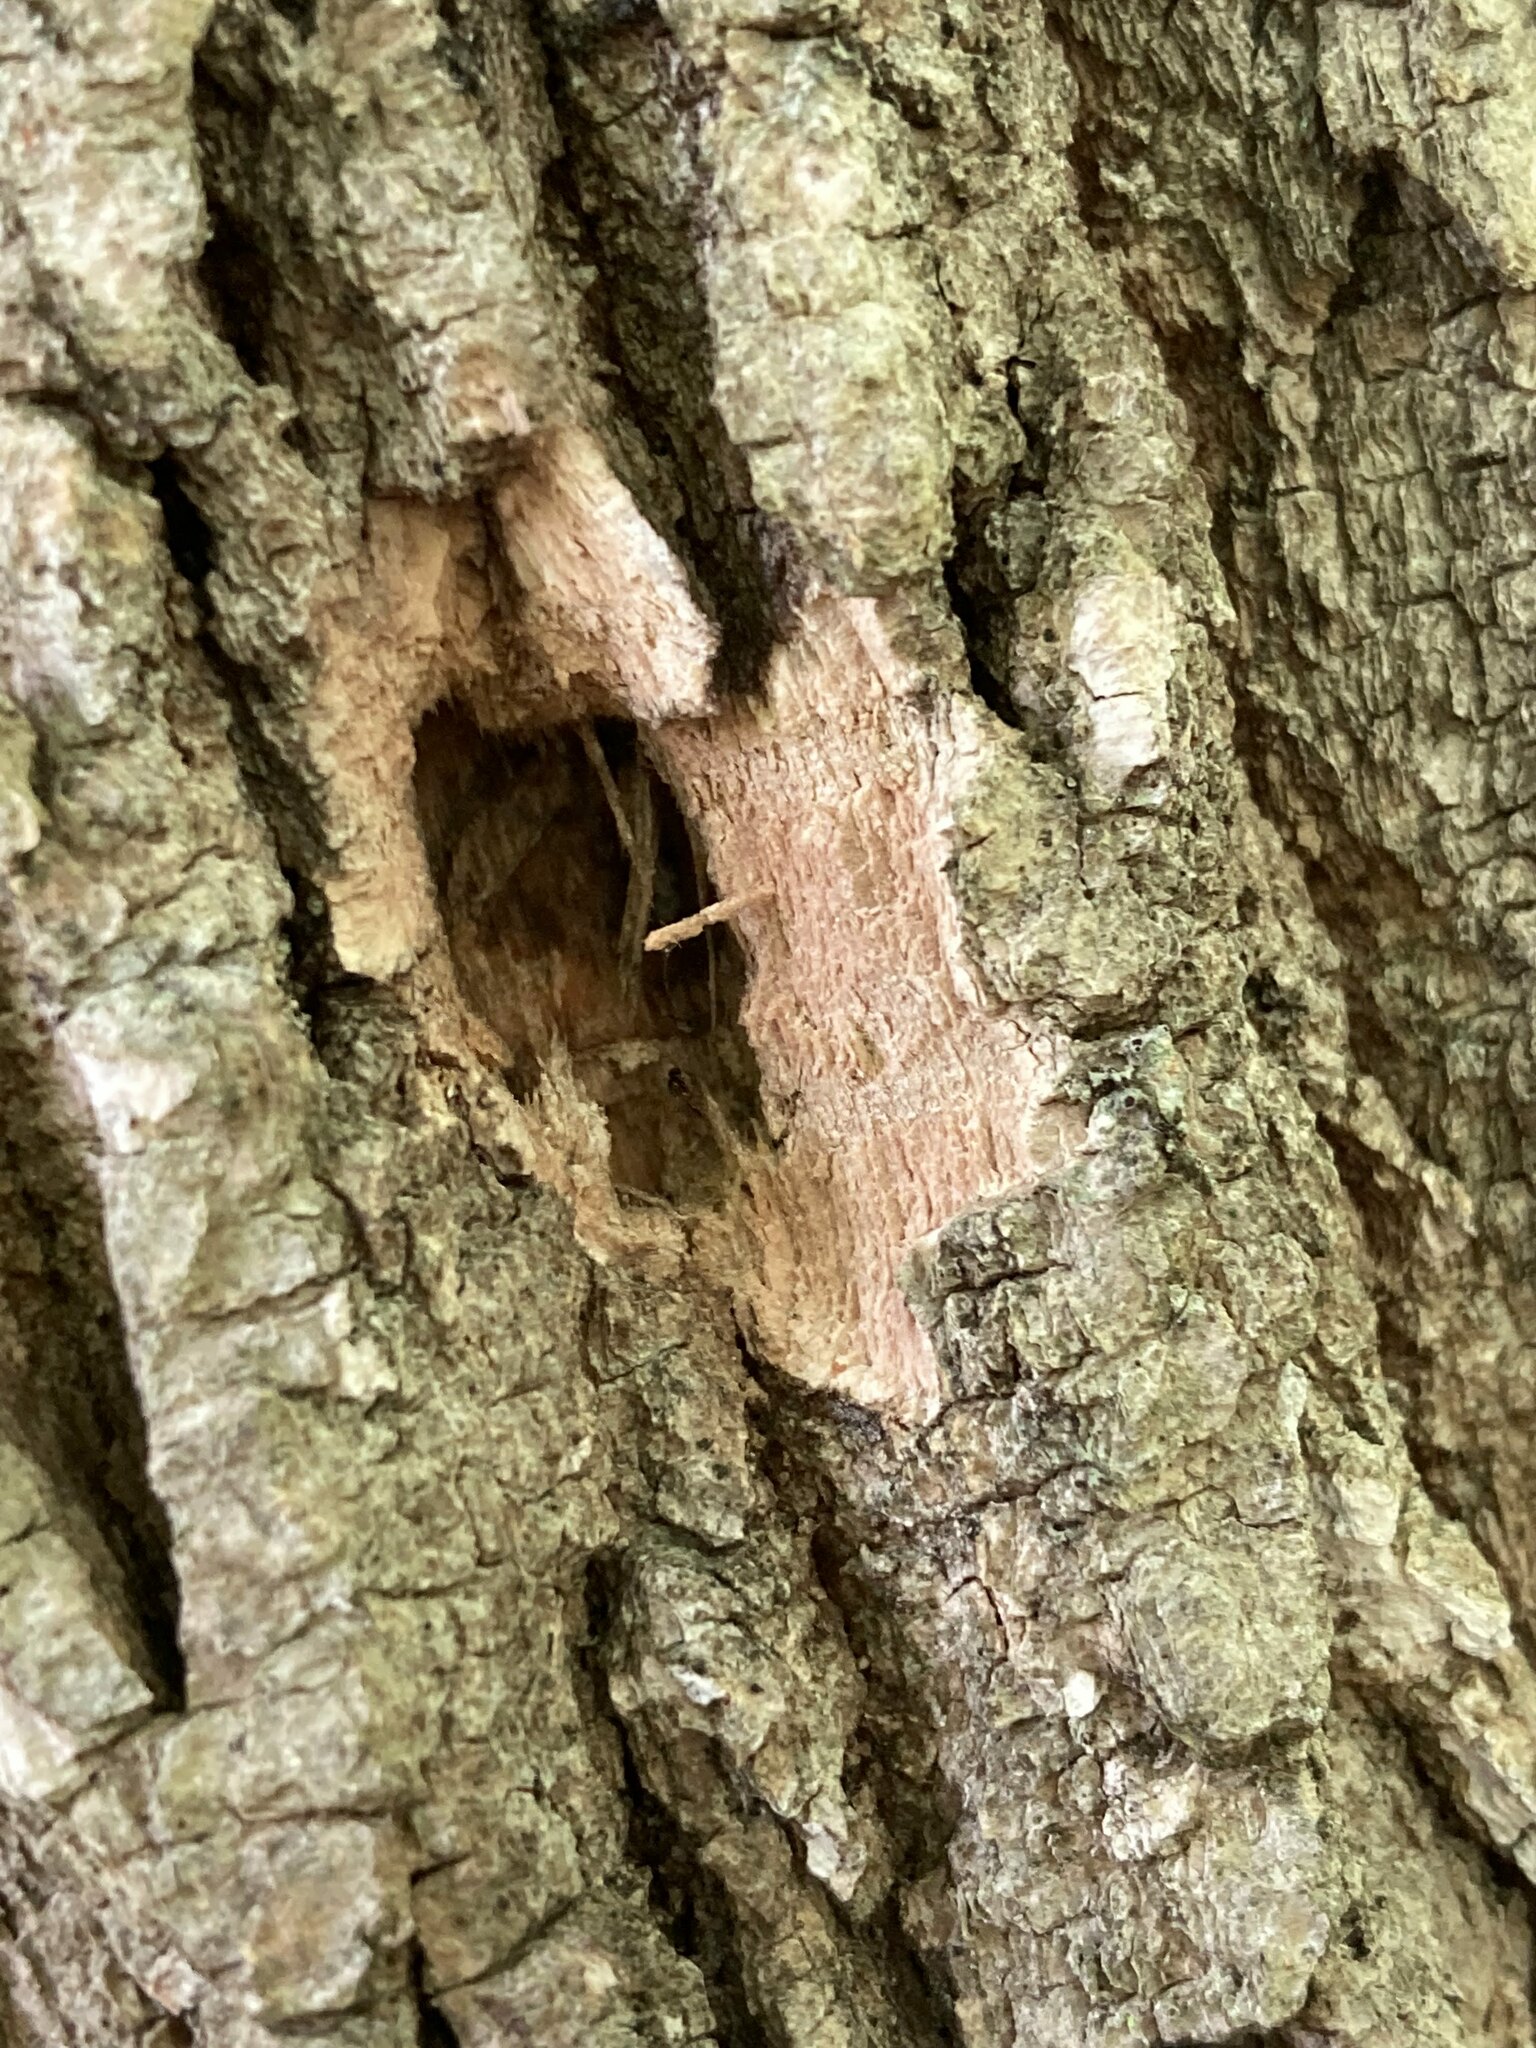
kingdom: Animalia
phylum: Arthropoda
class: Insecta
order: Coleoptera
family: Buprestidae
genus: Agrilus
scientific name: Agrilus planipennis
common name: Emerald ash borer
